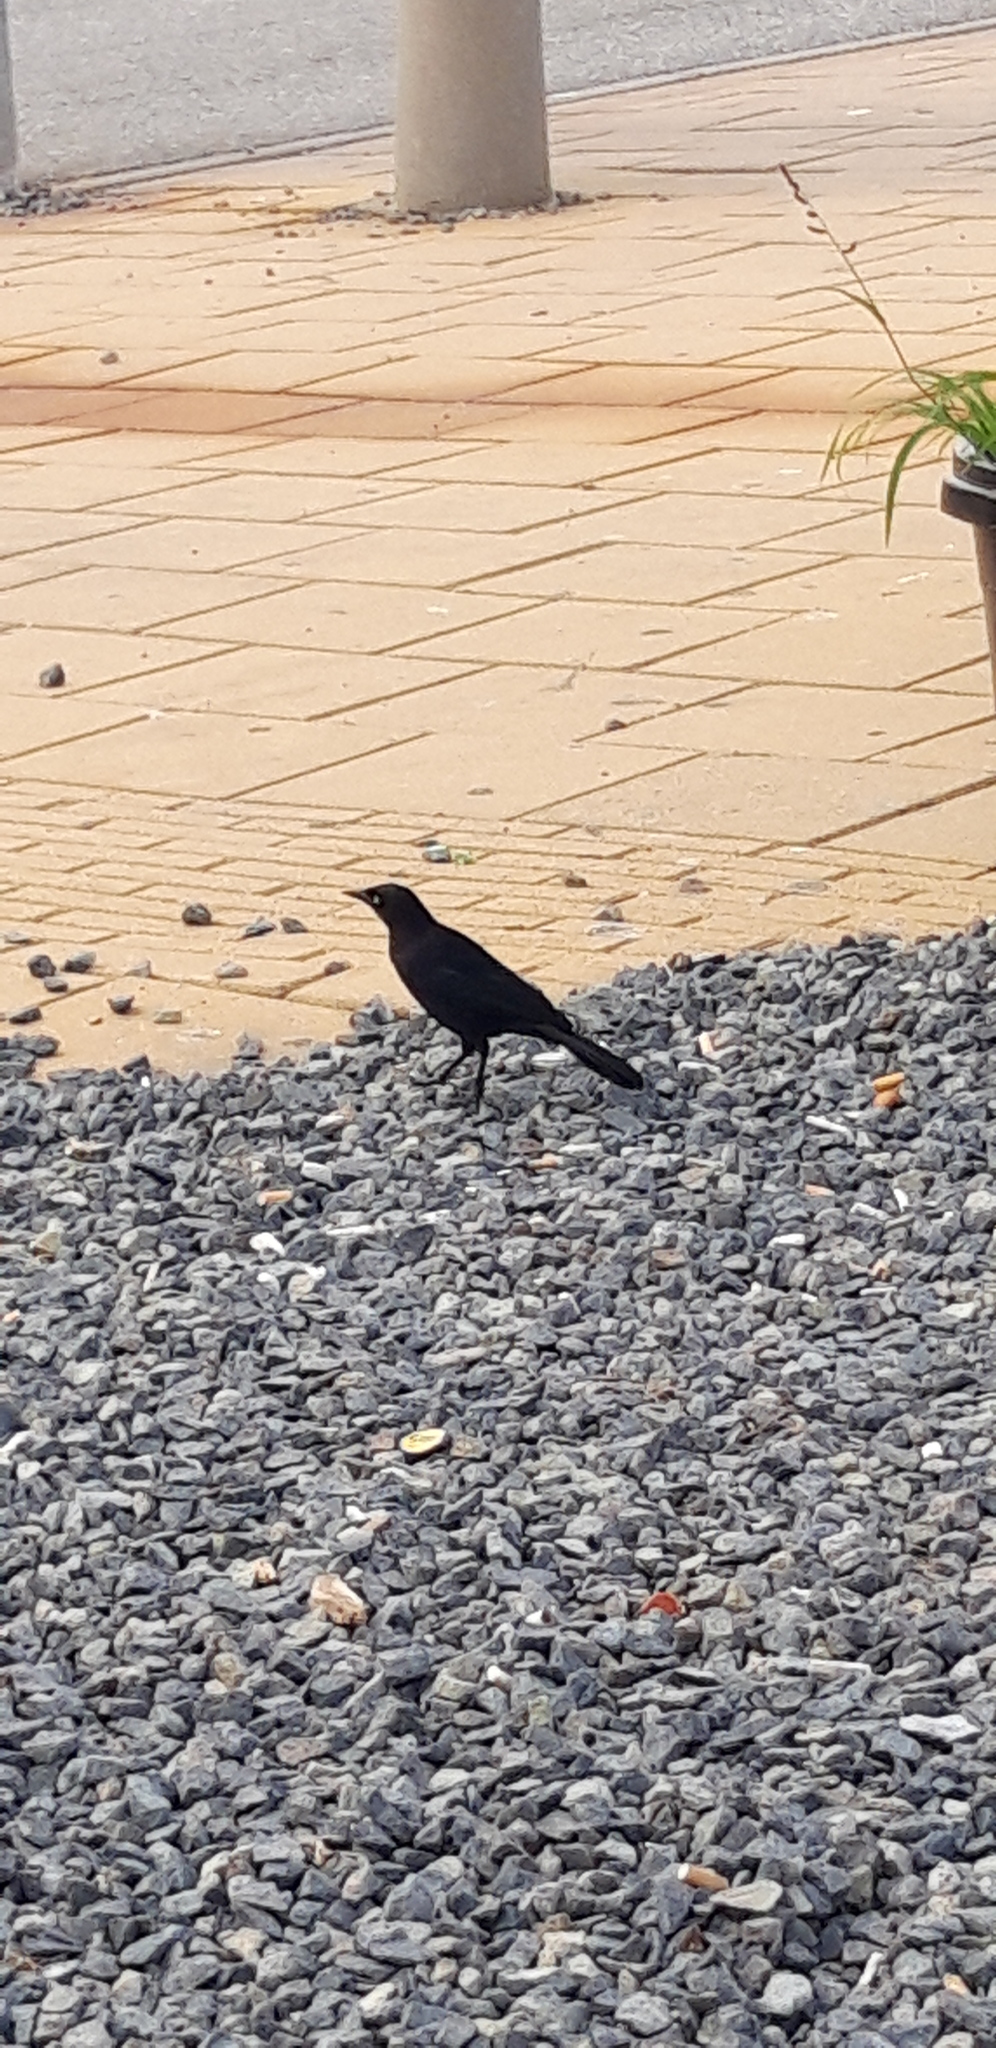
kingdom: Animalia
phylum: Chordata
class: Aves
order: Passeriformes
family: Icteridae
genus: Quiscalus
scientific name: Quiscalus lugubris
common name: Carib grackle
